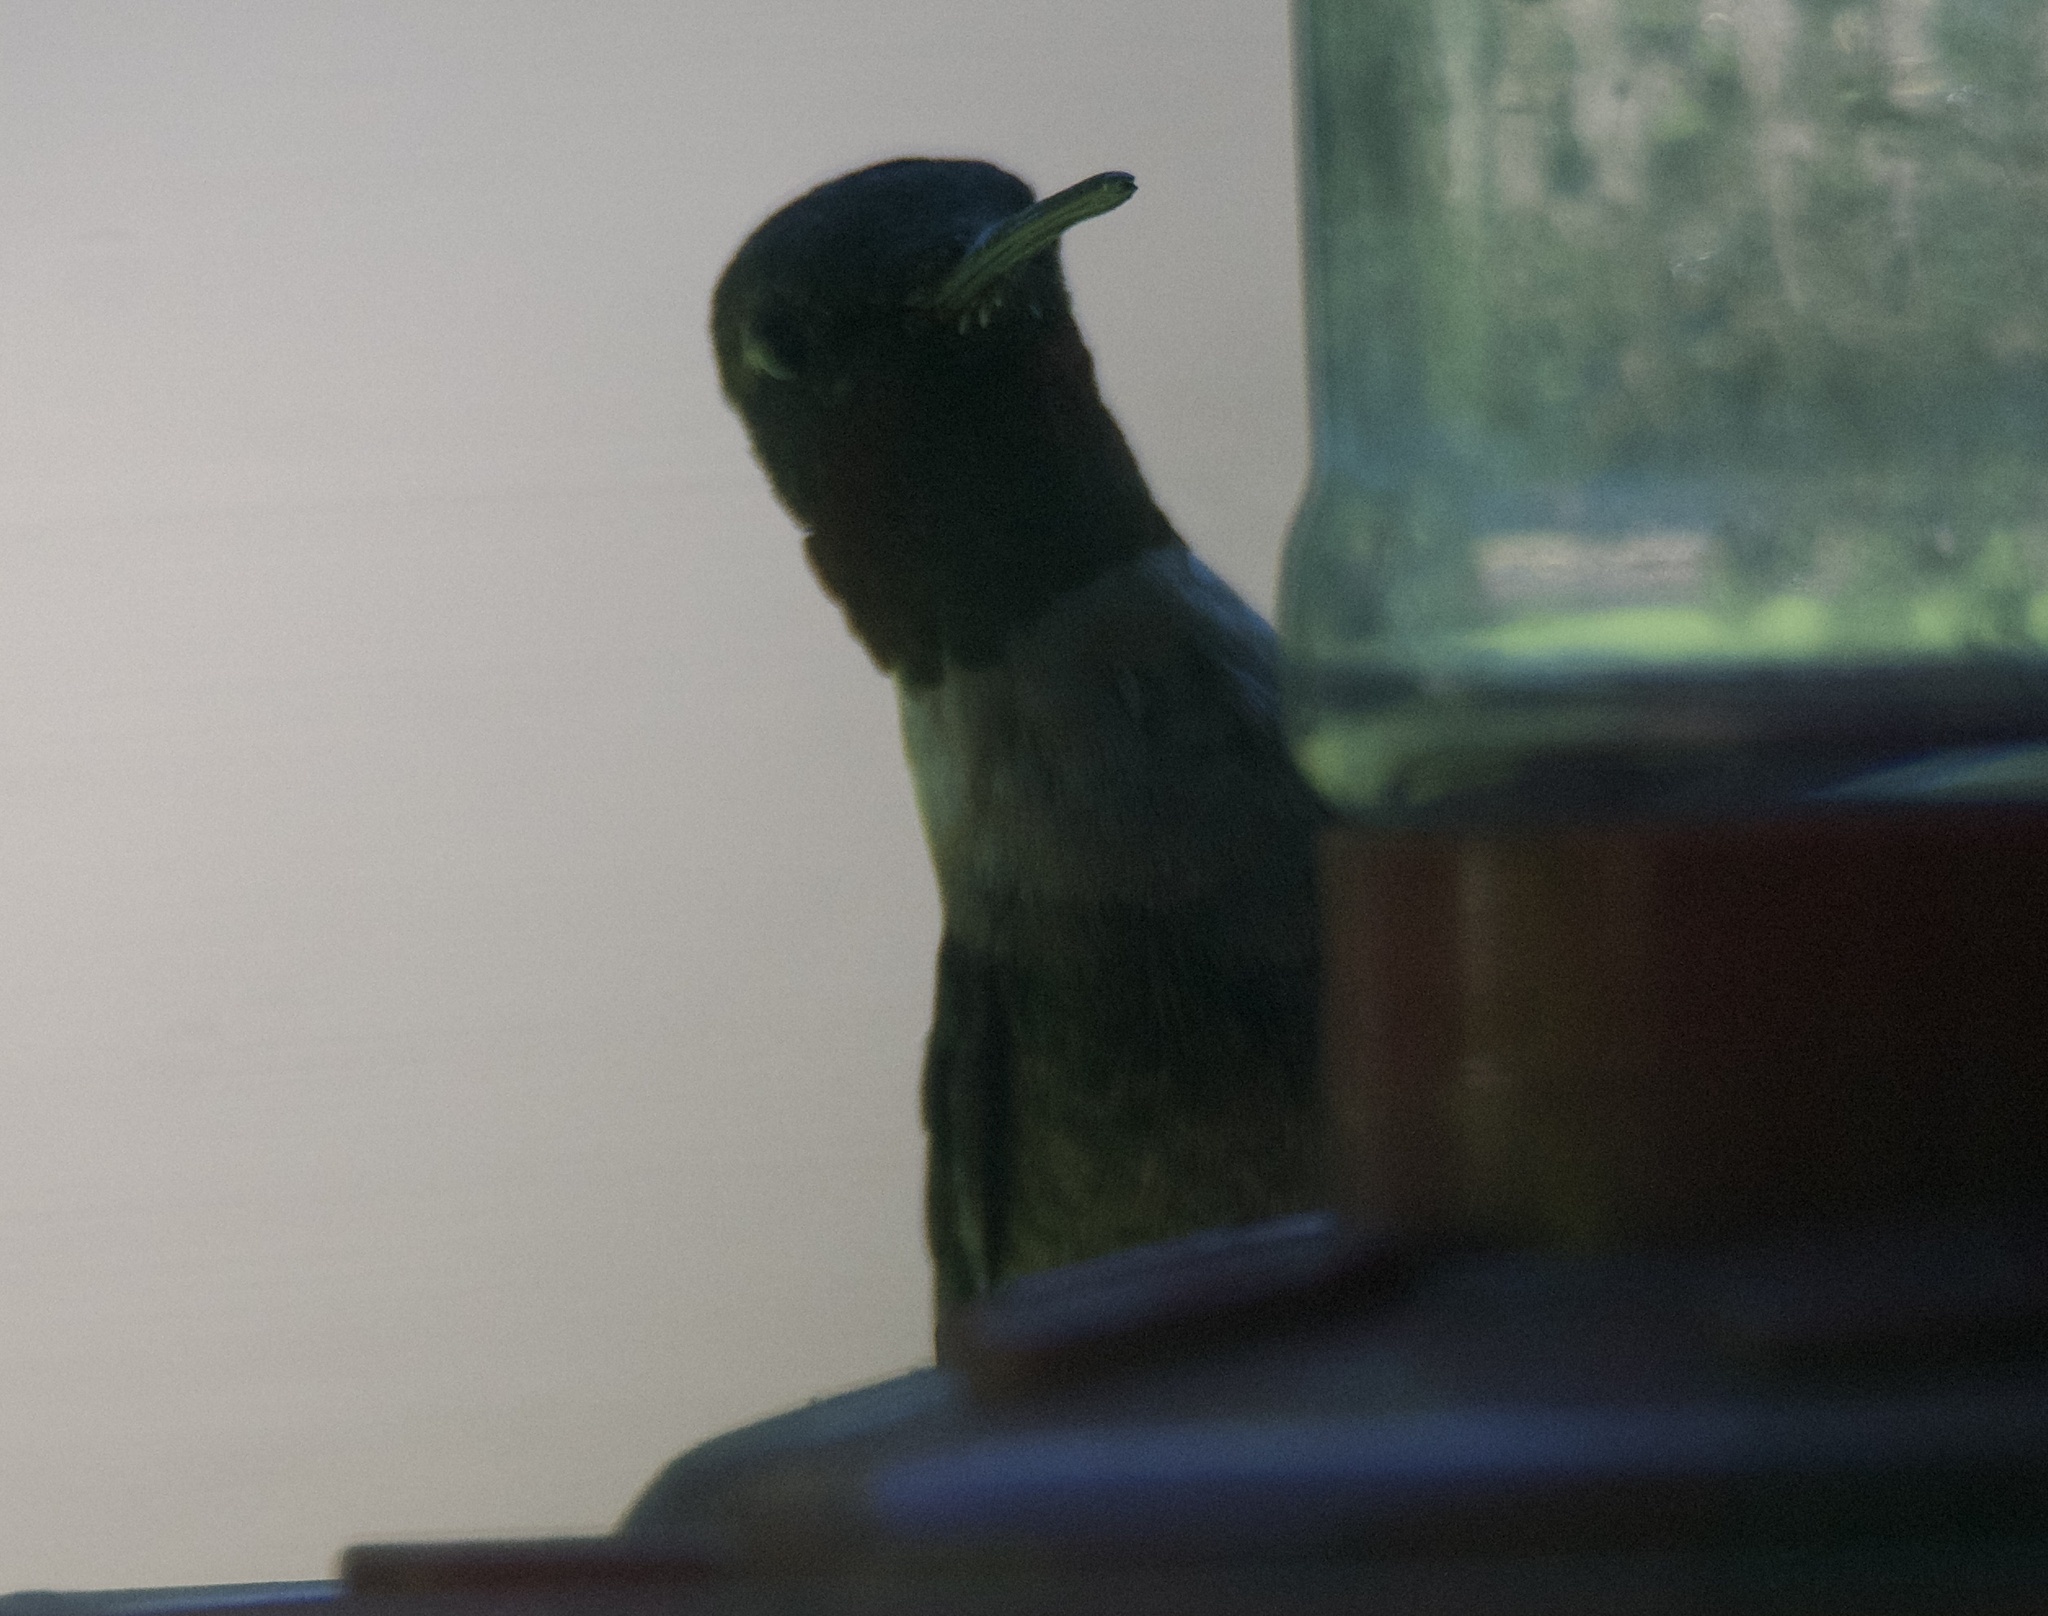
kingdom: Animalia
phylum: Chordata
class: Aves
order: Apodiformes
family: Trochilidae
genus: Archilochus
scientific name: Archilochus colubris
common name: Ruby-throated hummingbird
